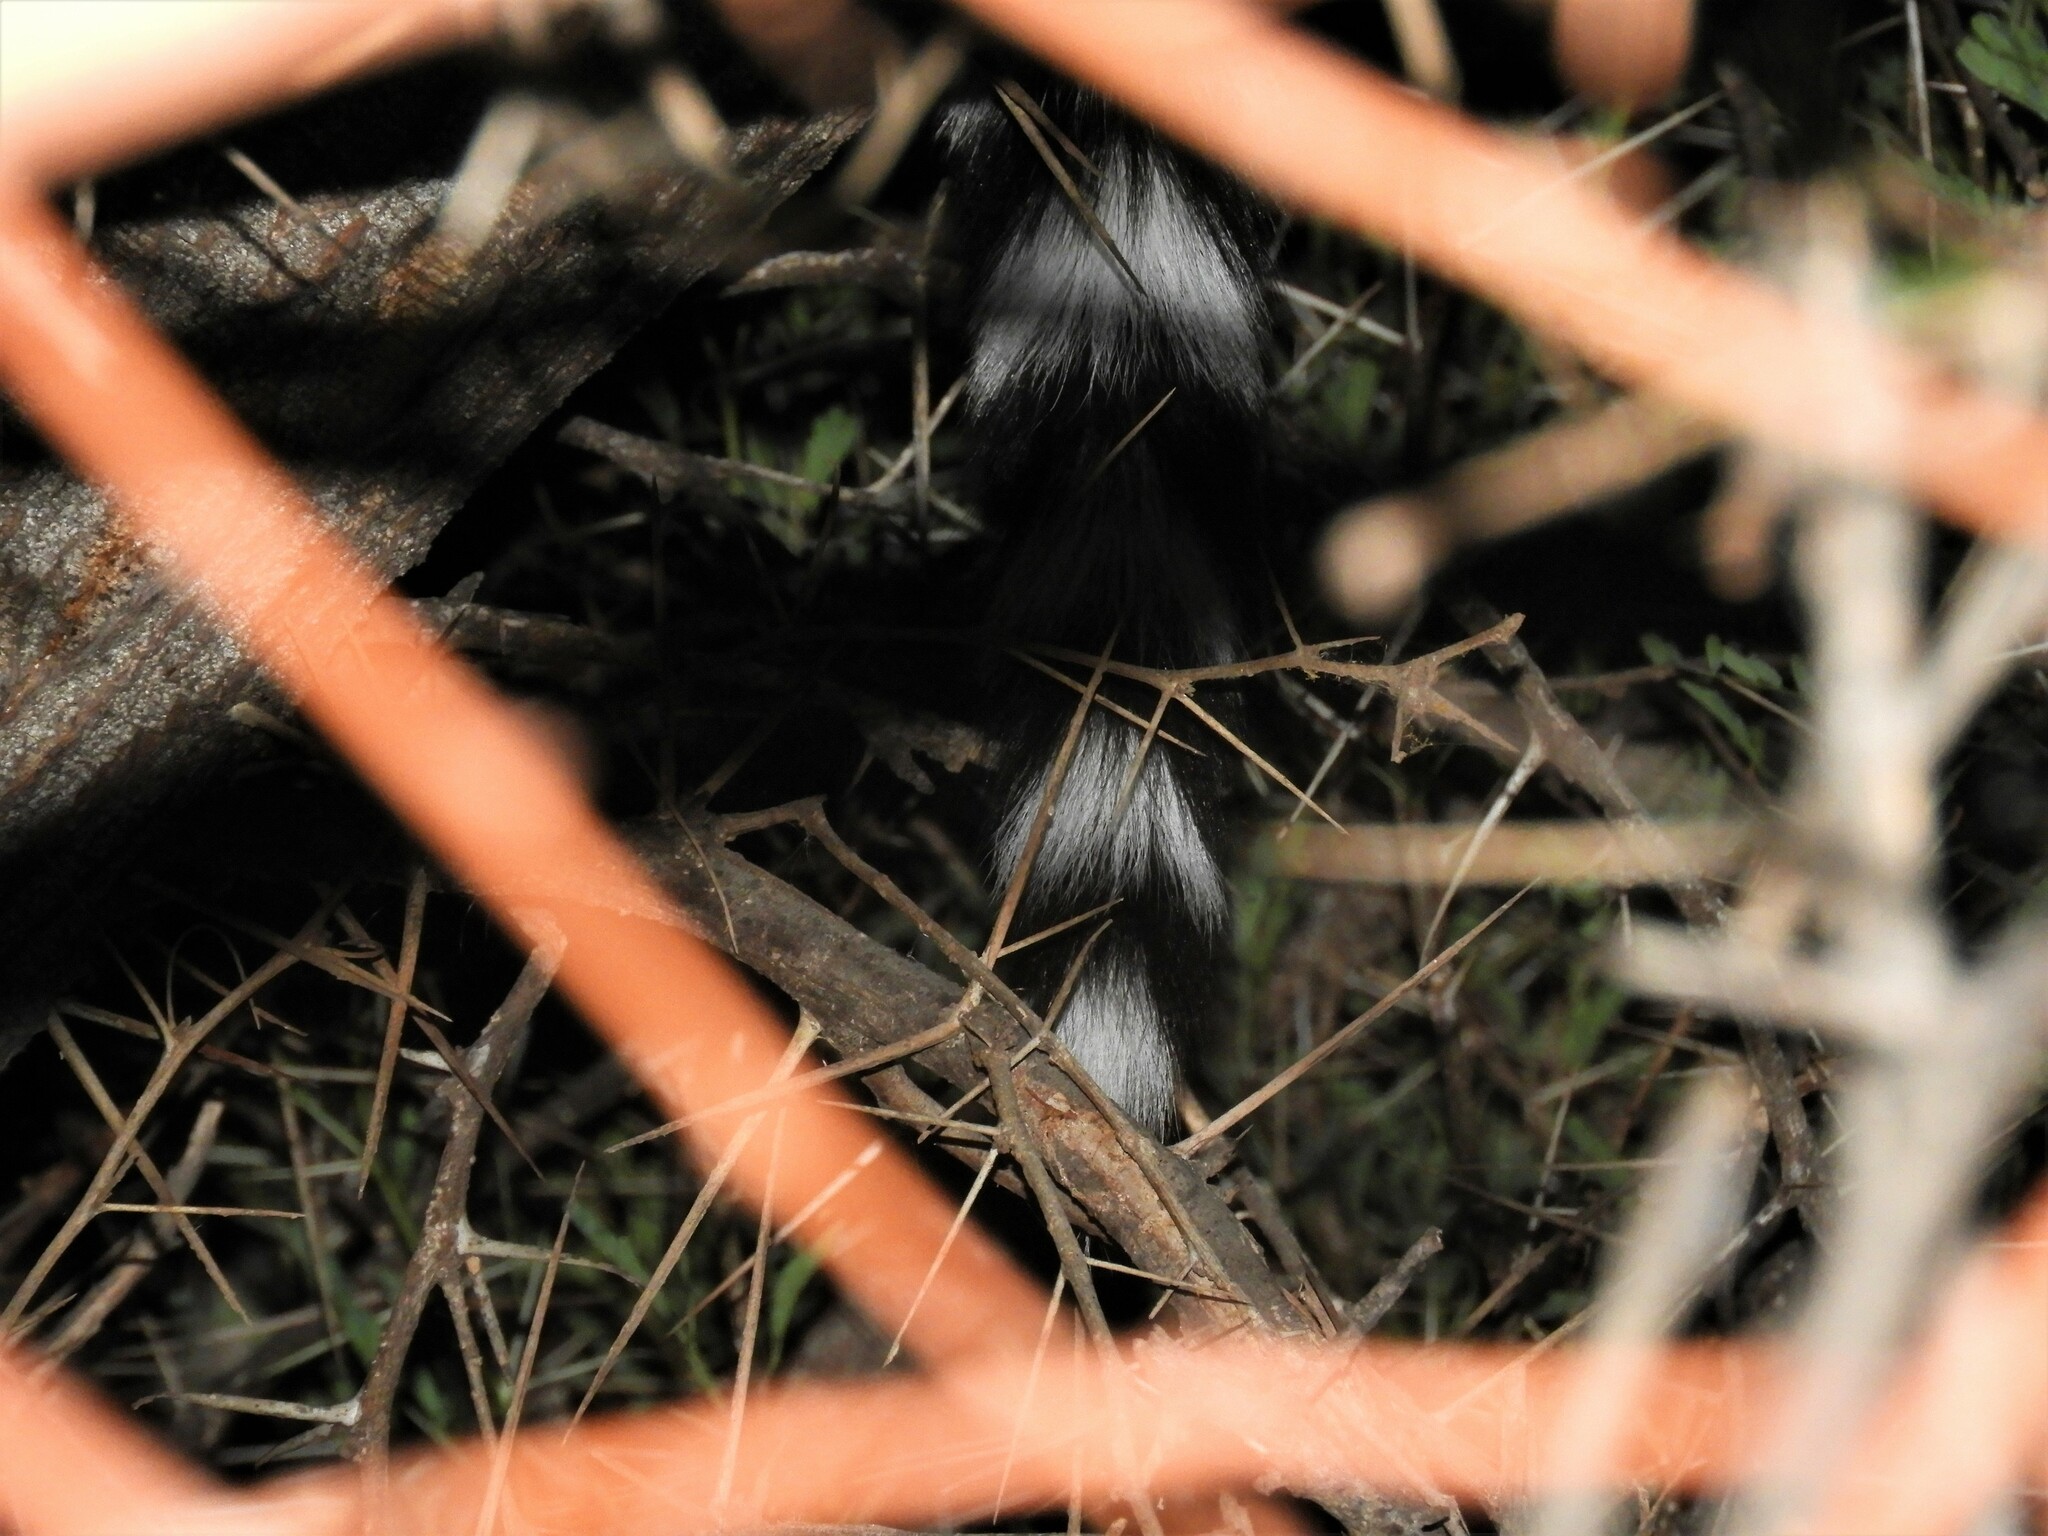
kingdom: Animalia
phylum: Chordata
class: Mammalia
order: Carnivora
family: Viverridae
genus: Genetta
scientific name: Genetta genetta
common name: Common genet
